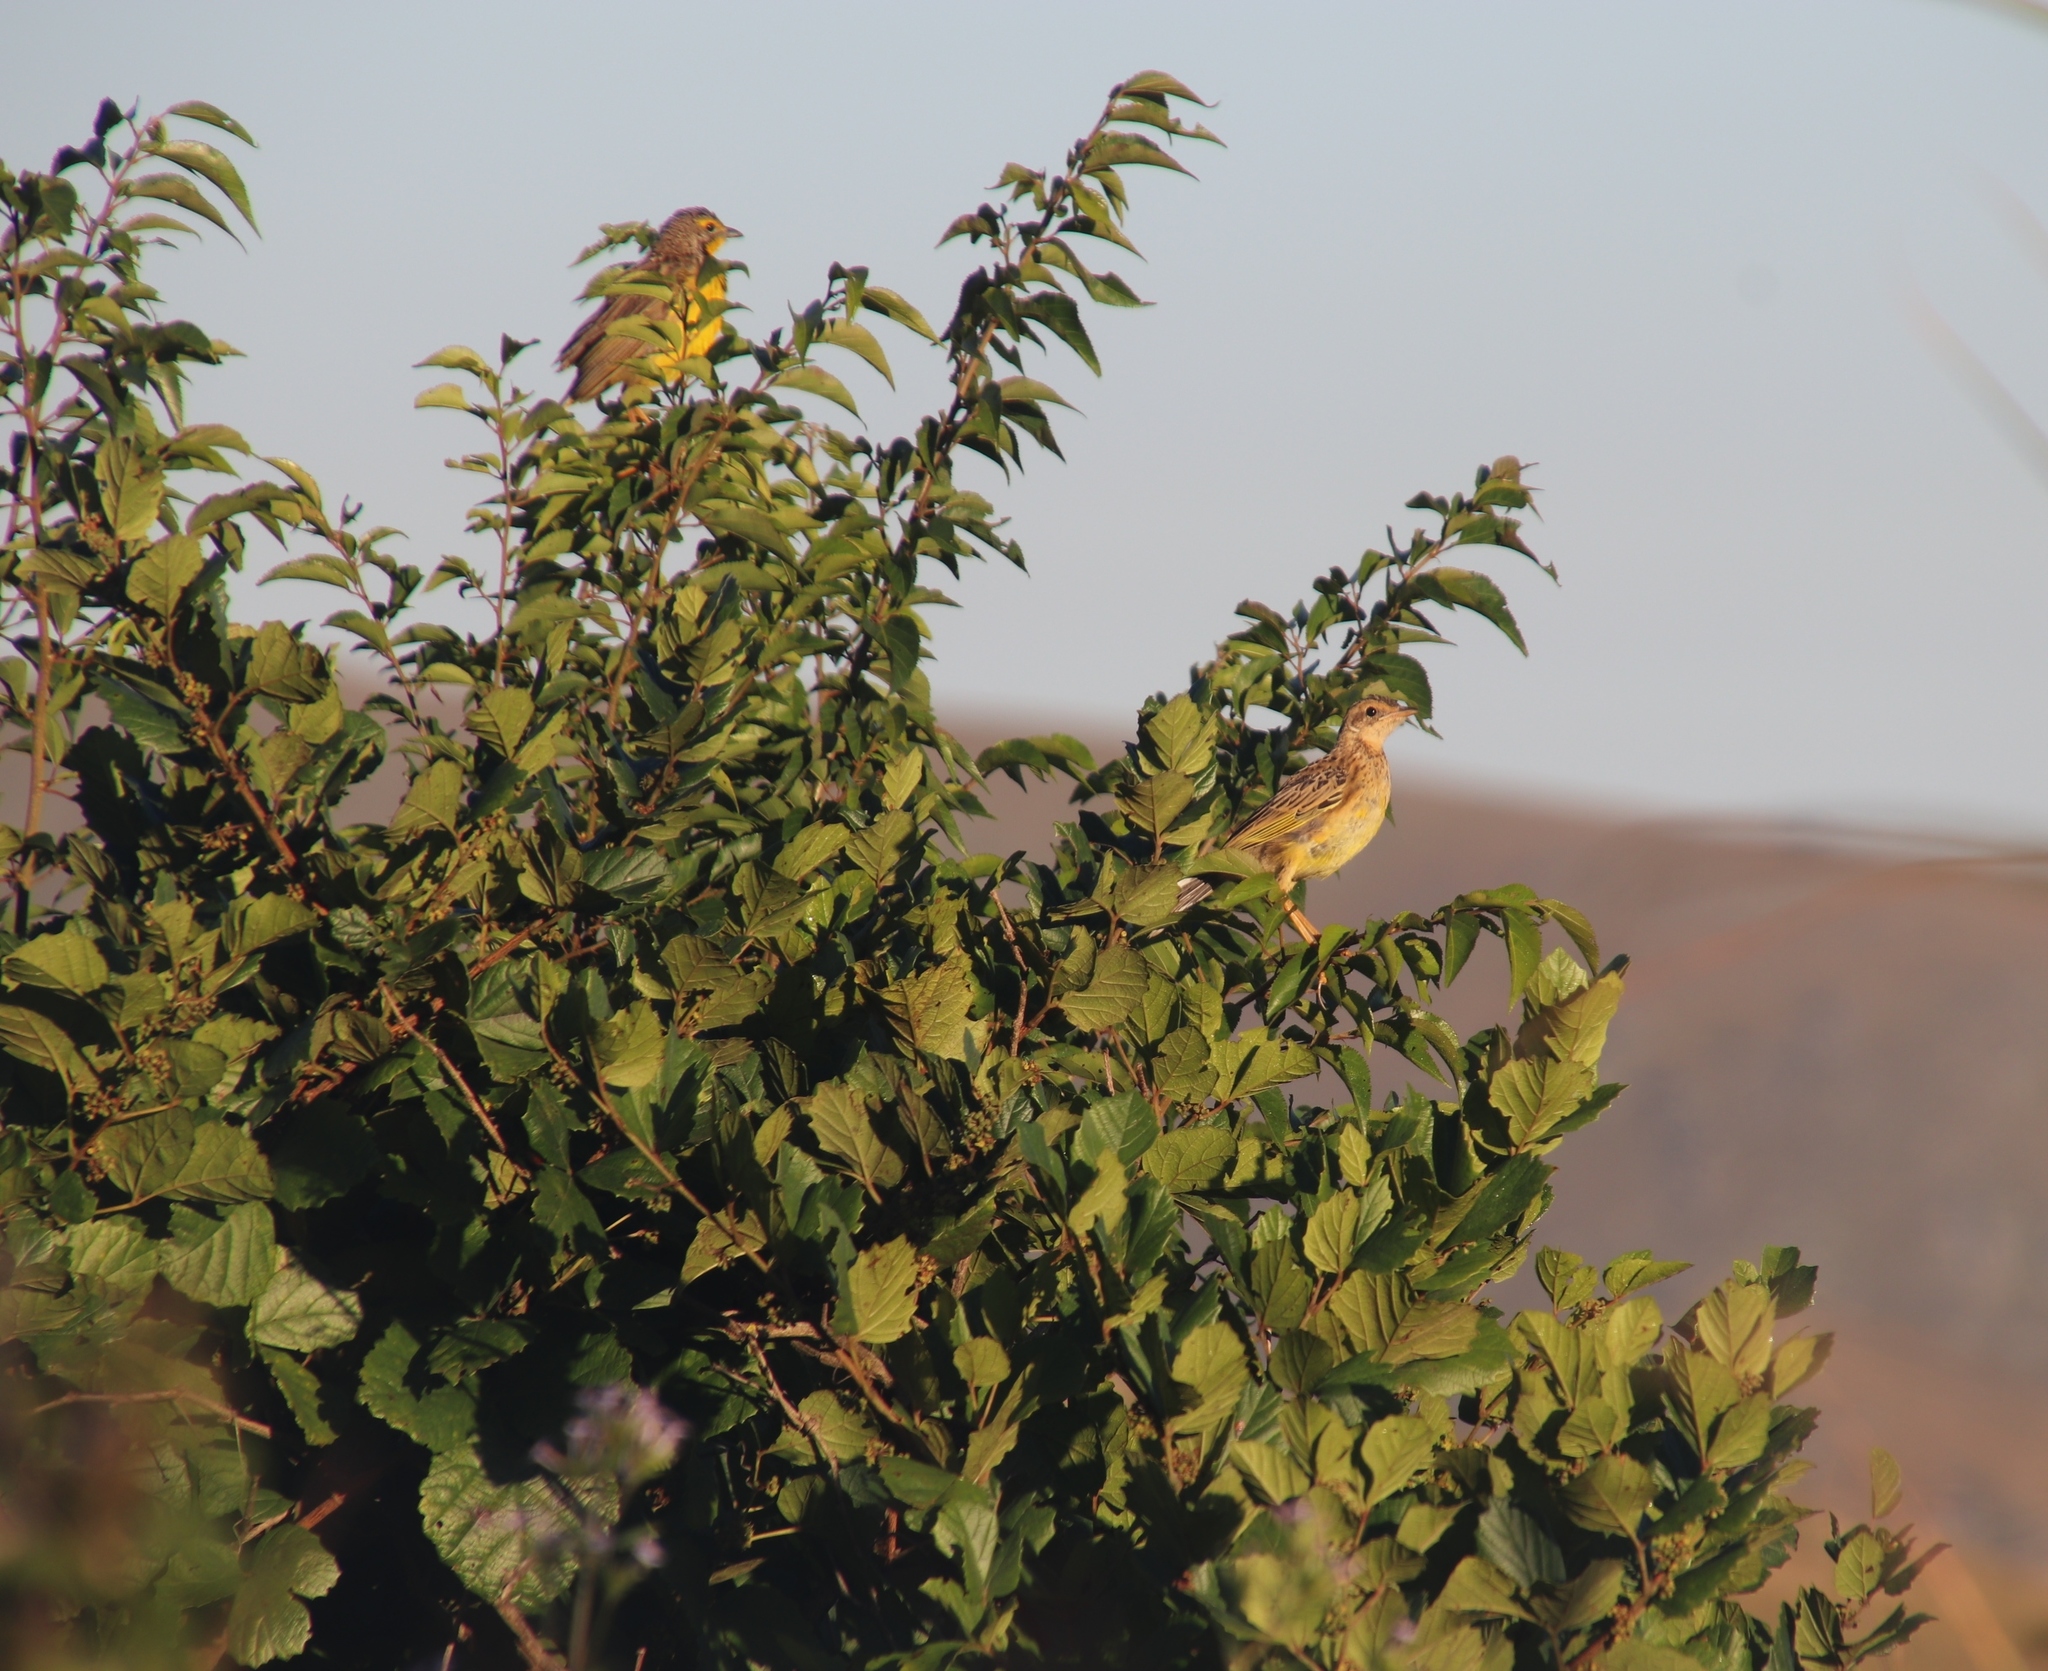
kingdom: Plantae
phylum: Tracheophyta
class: Magnoliopsida
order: Vitales
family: Vitaceae
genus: Rhoicissus
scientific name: Rhoicissus tridentata
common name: Common forest grape
